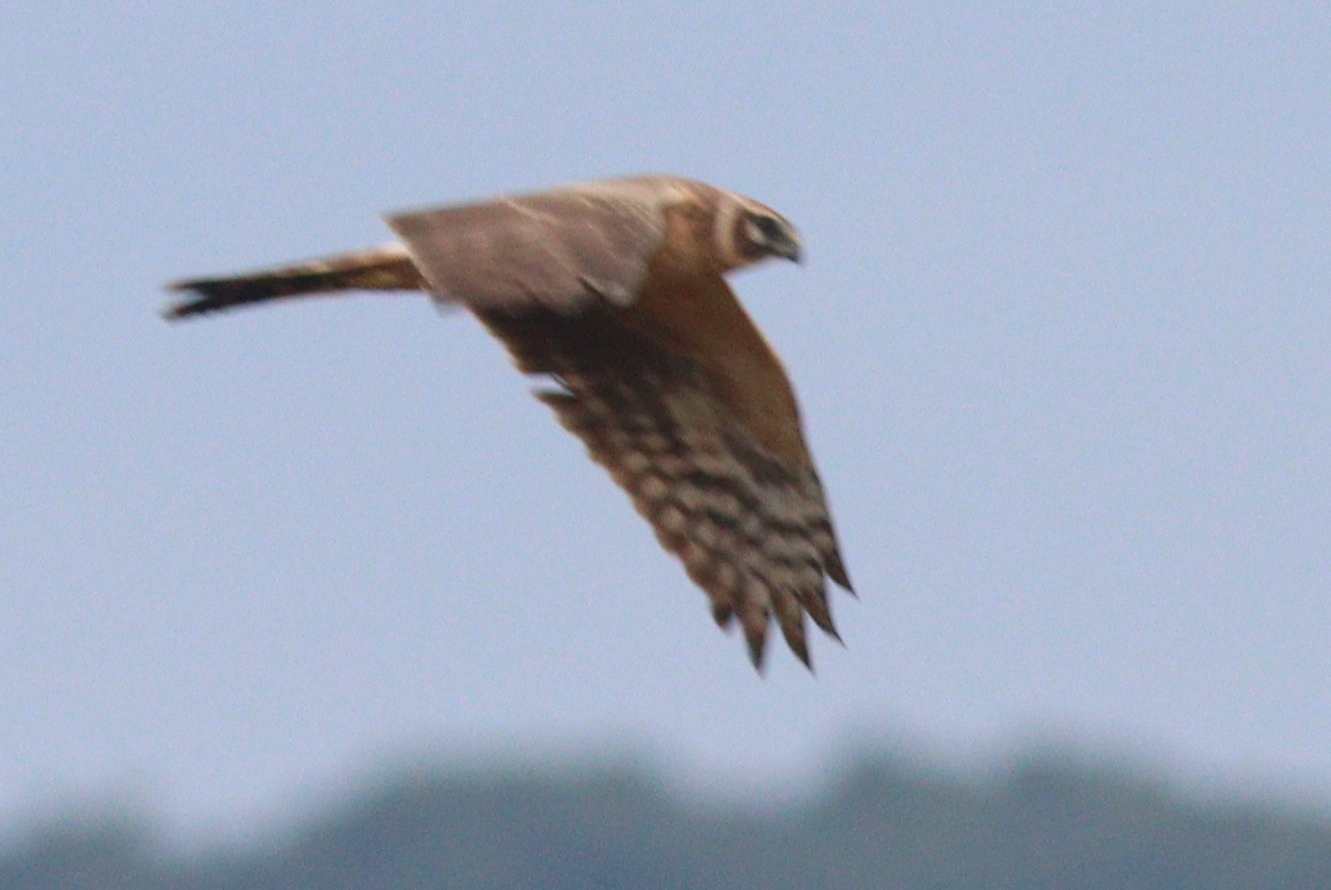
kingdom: Animalia
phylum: Chordata
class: Aves
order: Accipitriformes
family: Accipitridae
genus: Circus
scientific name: Circus macrourus
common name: Pallid harrier
